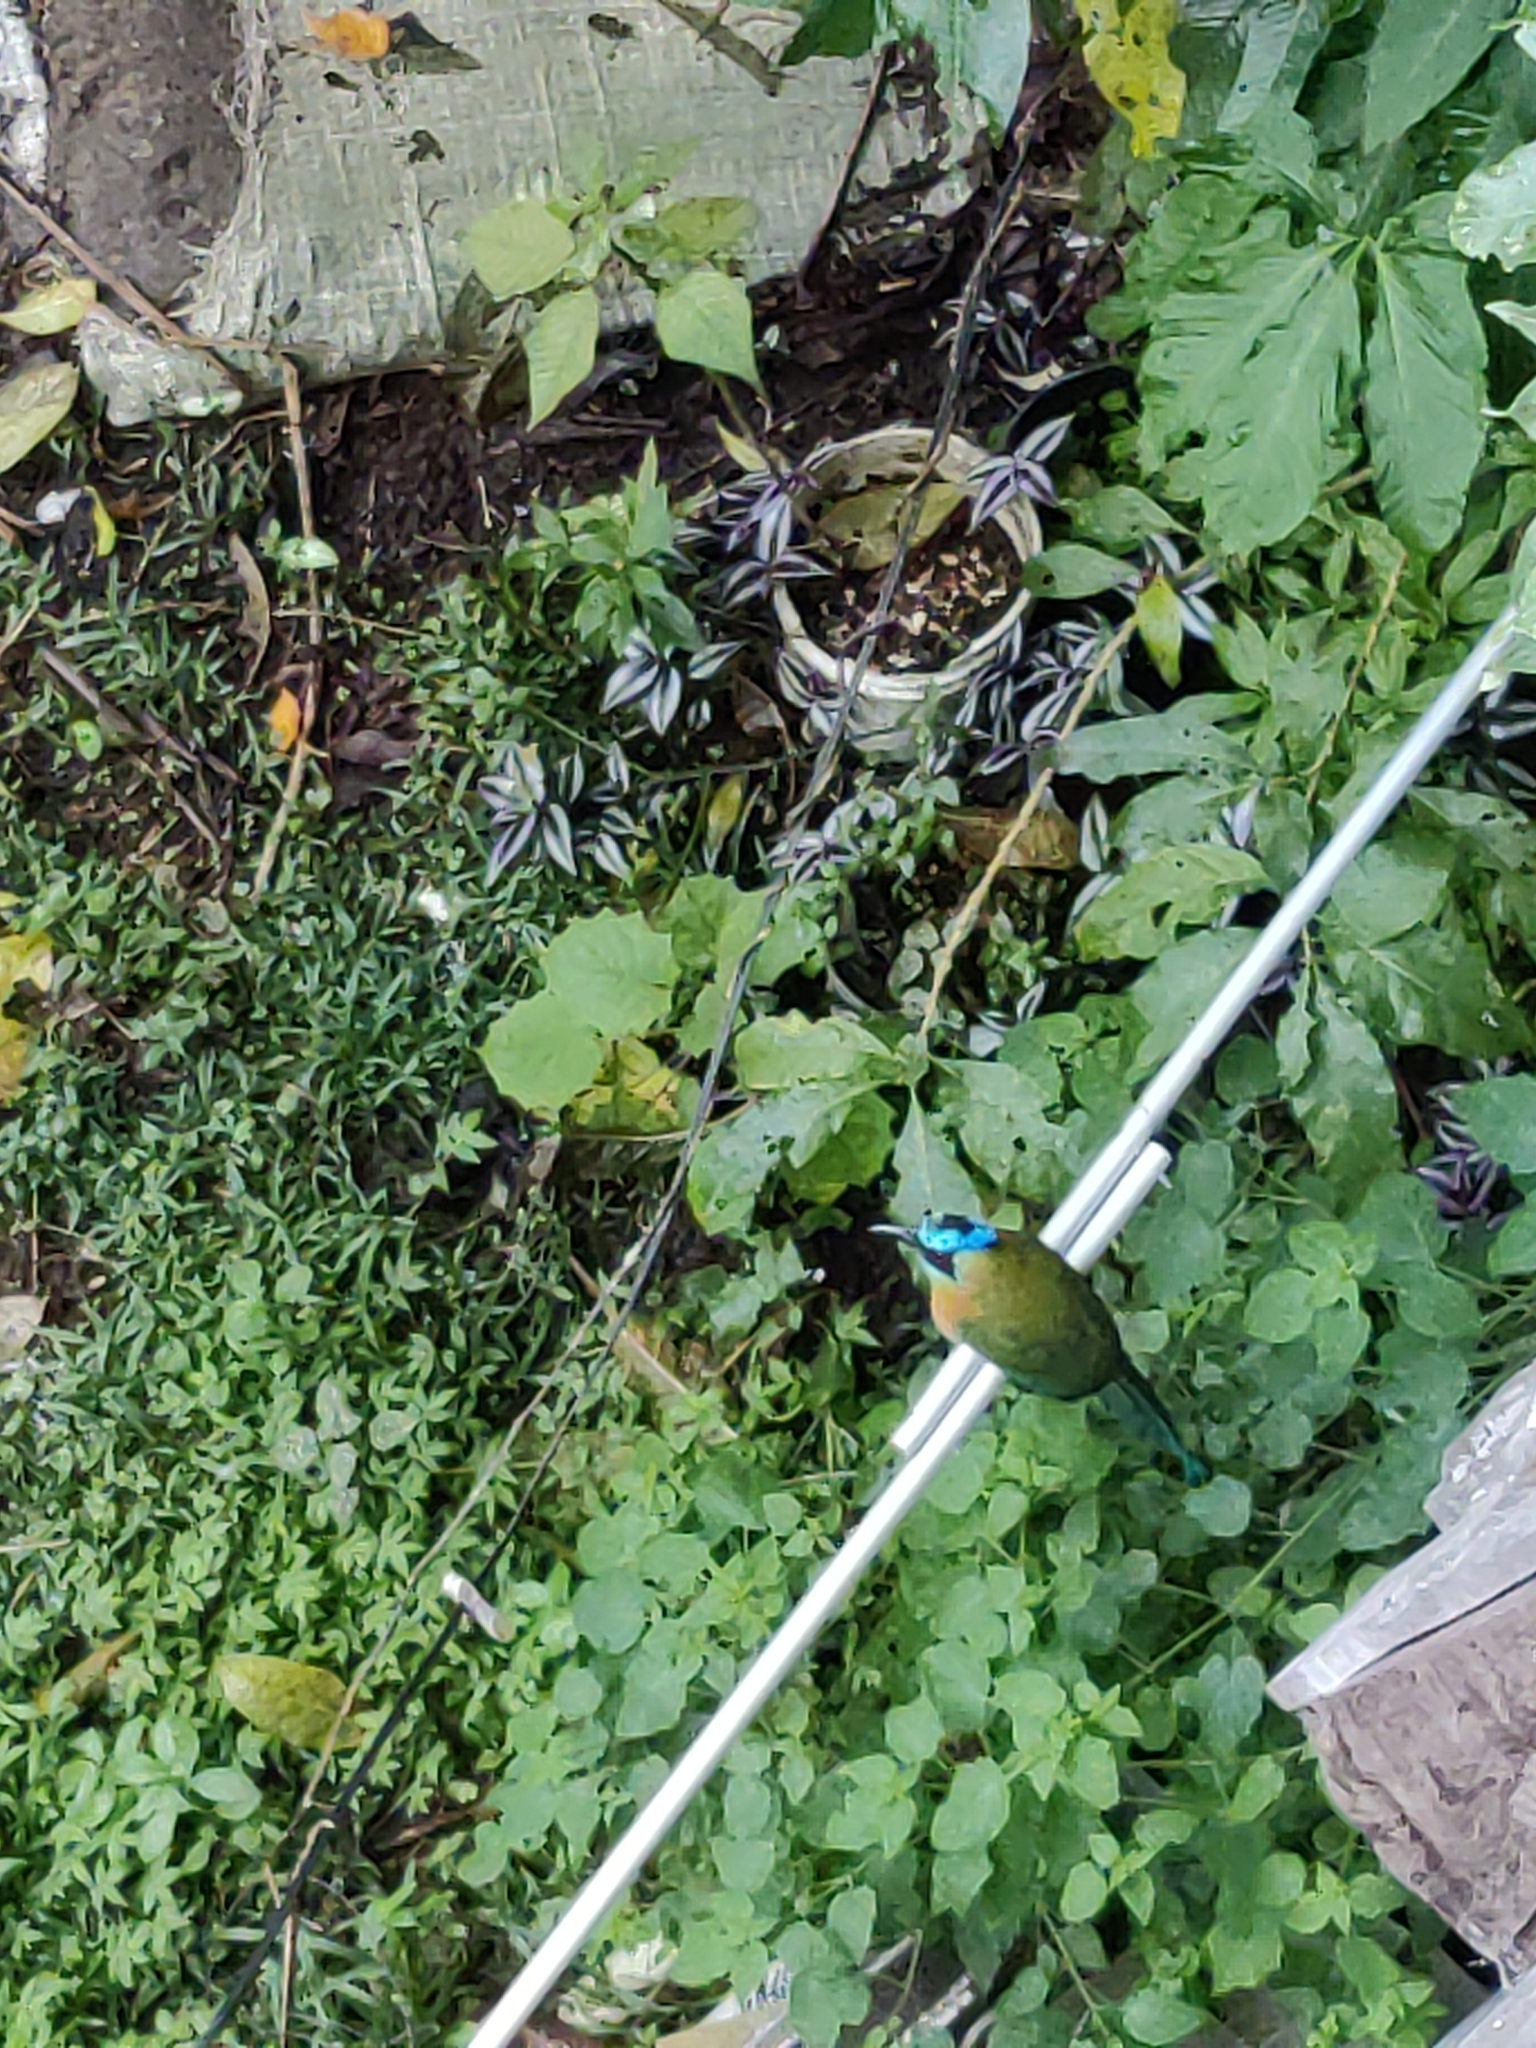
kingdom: Animalia
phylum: Chordata
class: Aves
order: Coraciiformes
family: Momotidae
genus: Momotus
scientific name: Momotus lessonii
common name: Lesson's motmot
